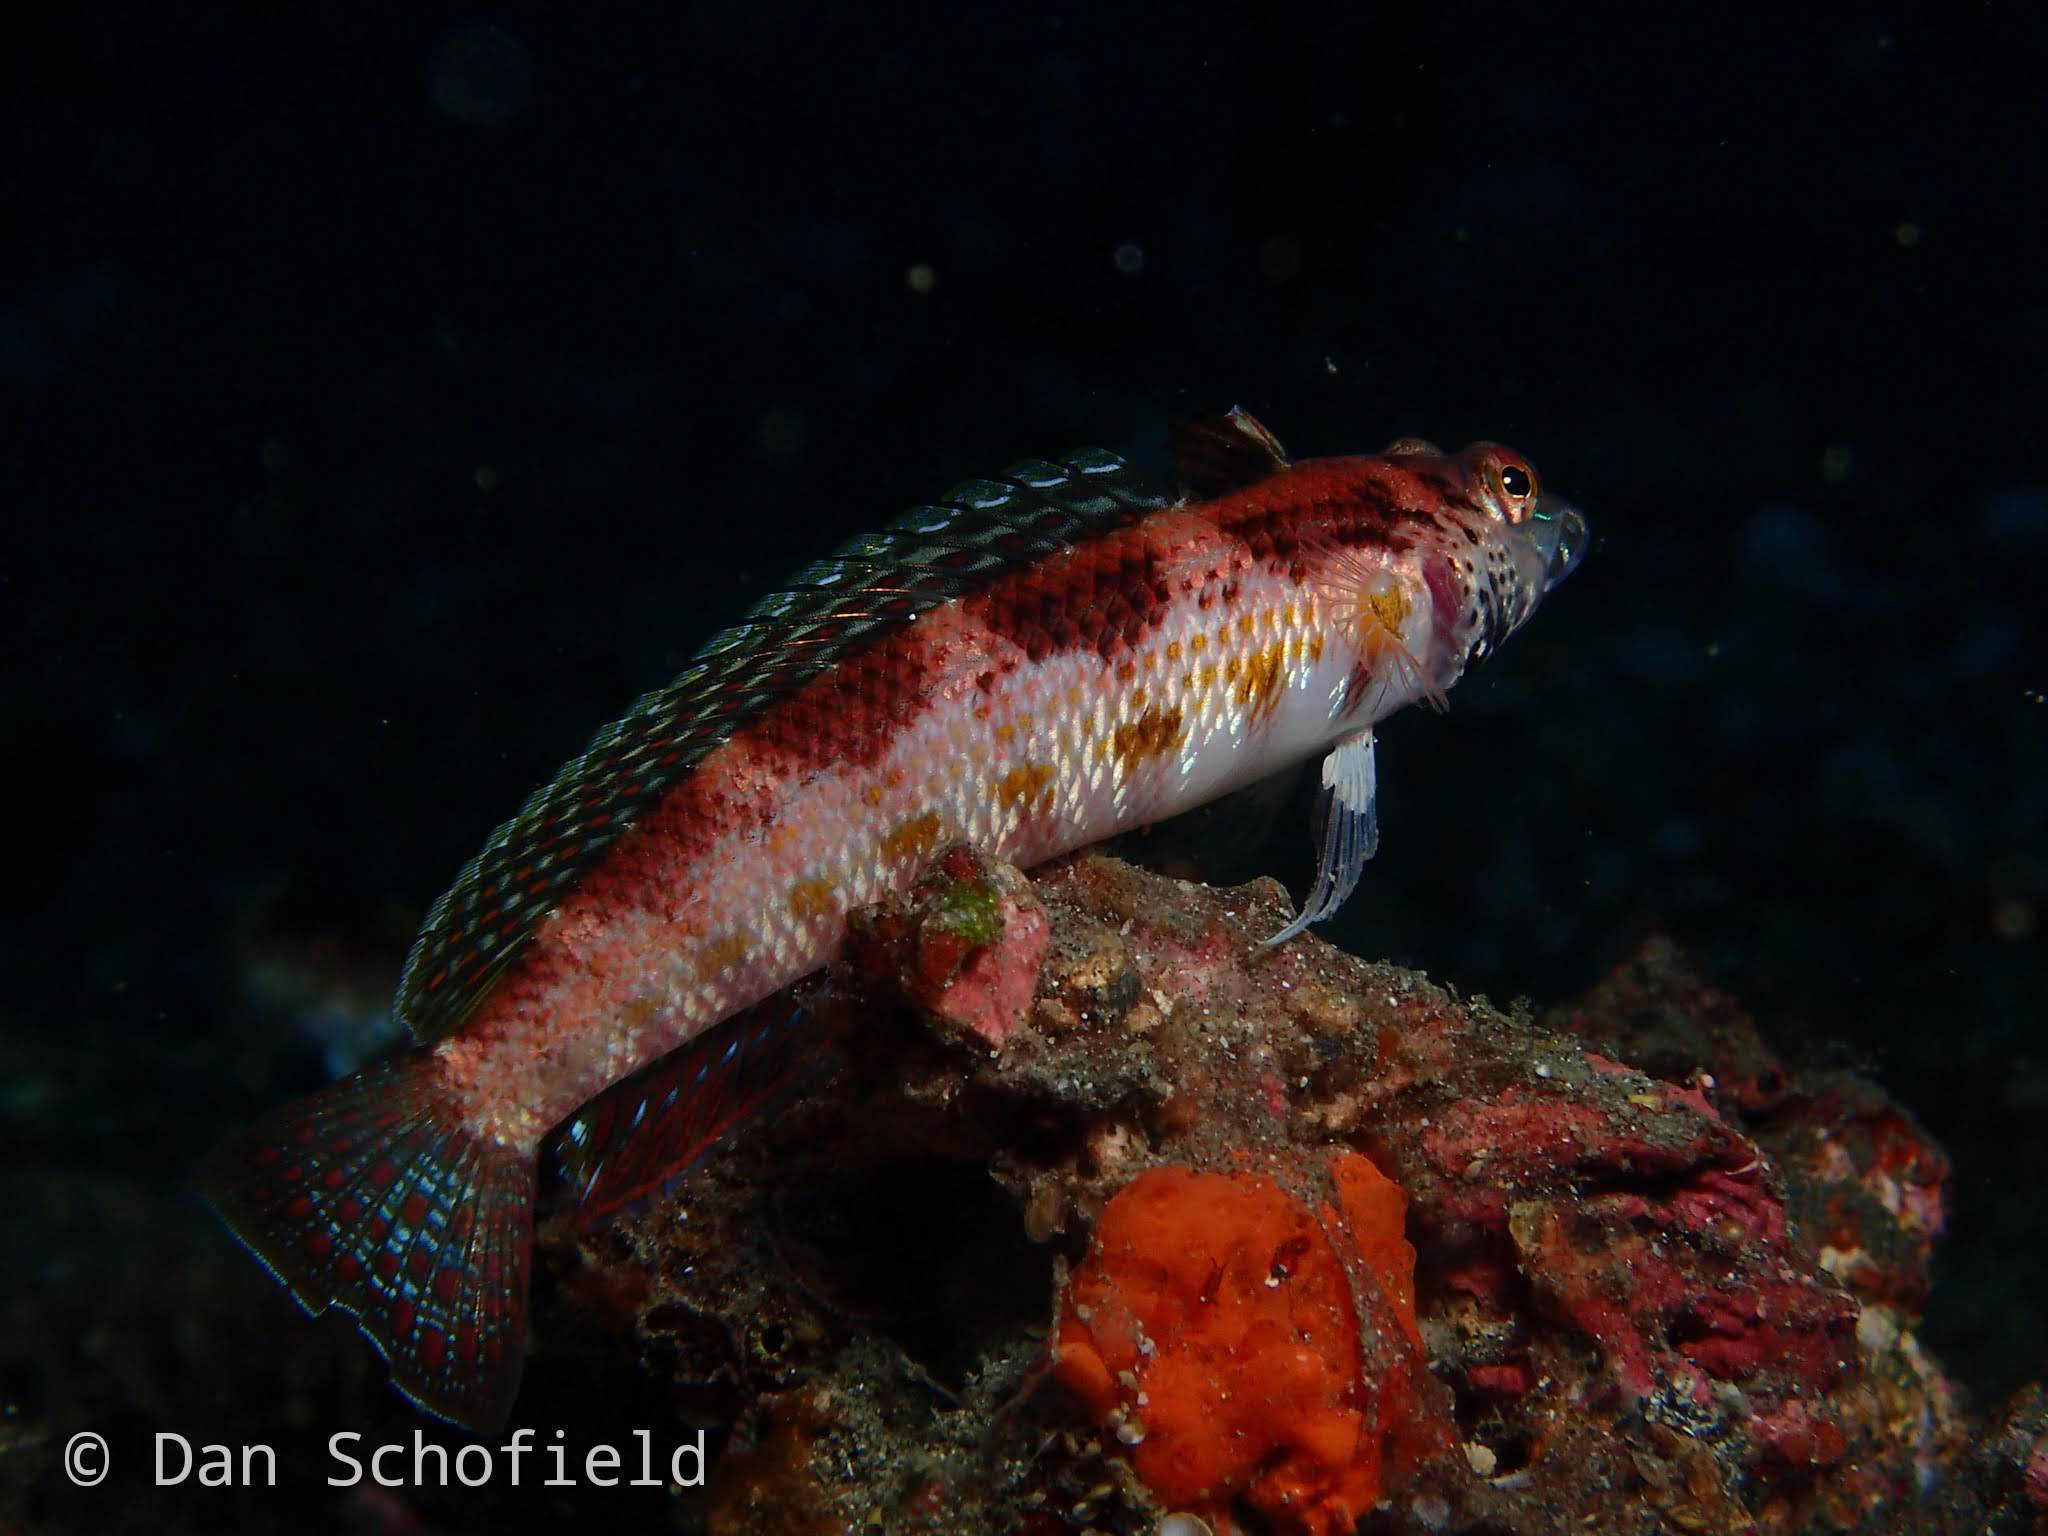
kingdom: Animalia
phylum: Chordata
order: Perciformes
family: Pinguipedidae
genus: Parapercis
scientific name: Parapercis snyderi
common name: U-mark sandperch
